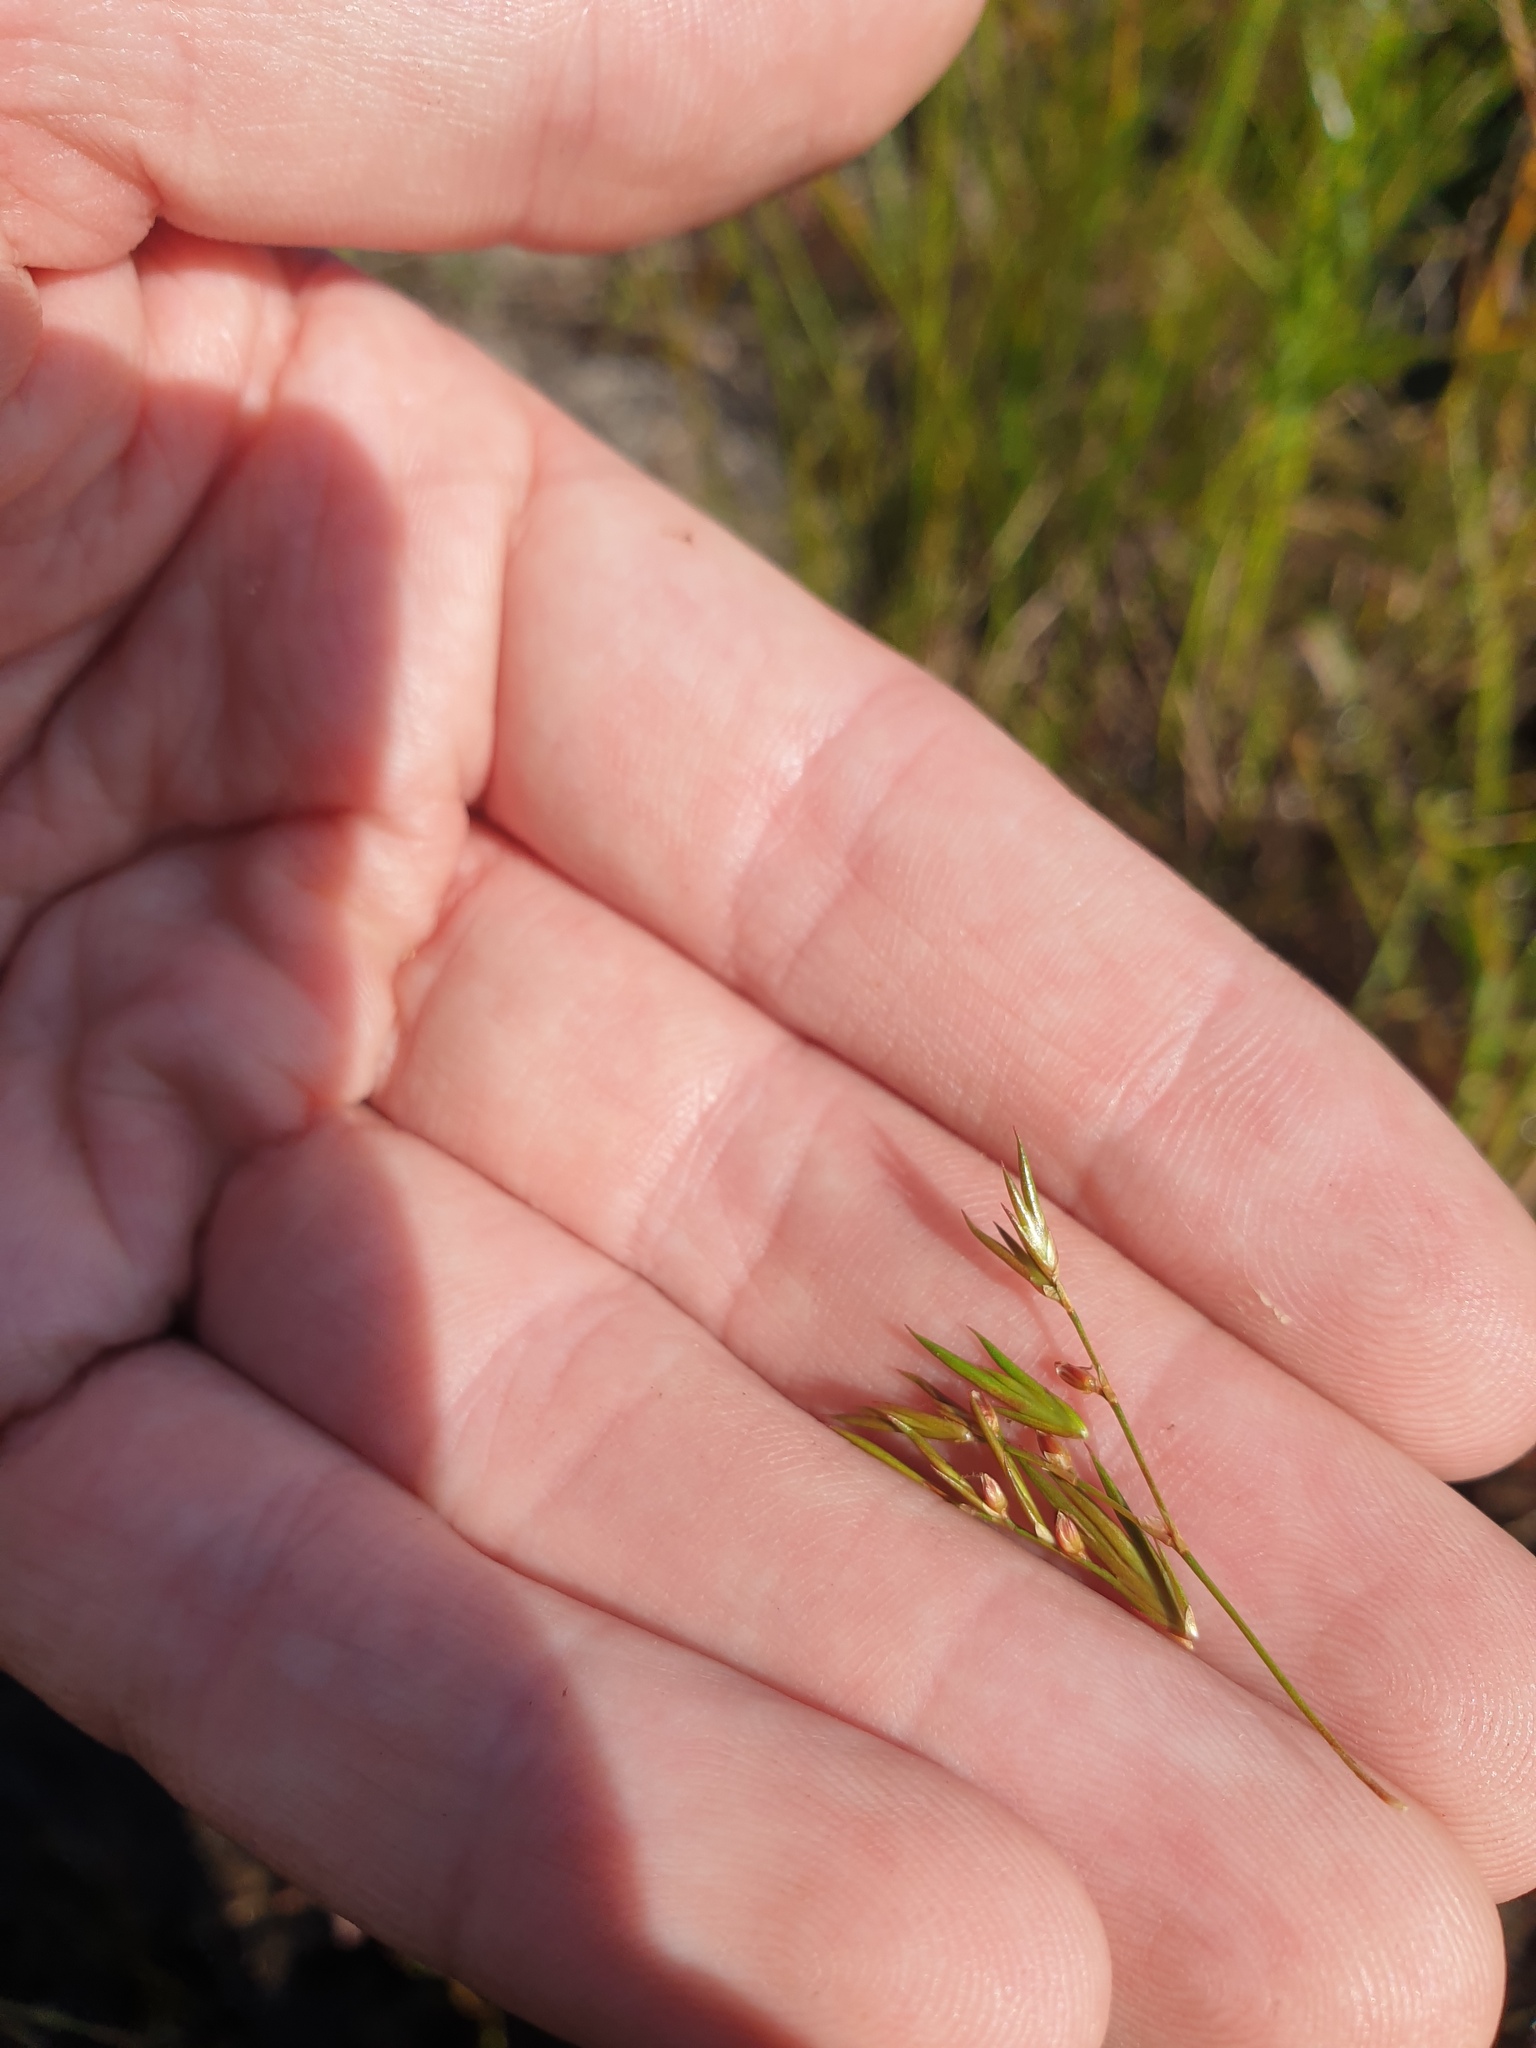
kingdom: Plantae
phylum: Tracheophyta
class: Liliopsida
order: Poales
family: Juncaceae
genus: Juncus
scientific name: Juncus pelocarpus
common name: Brown-fruited rush
